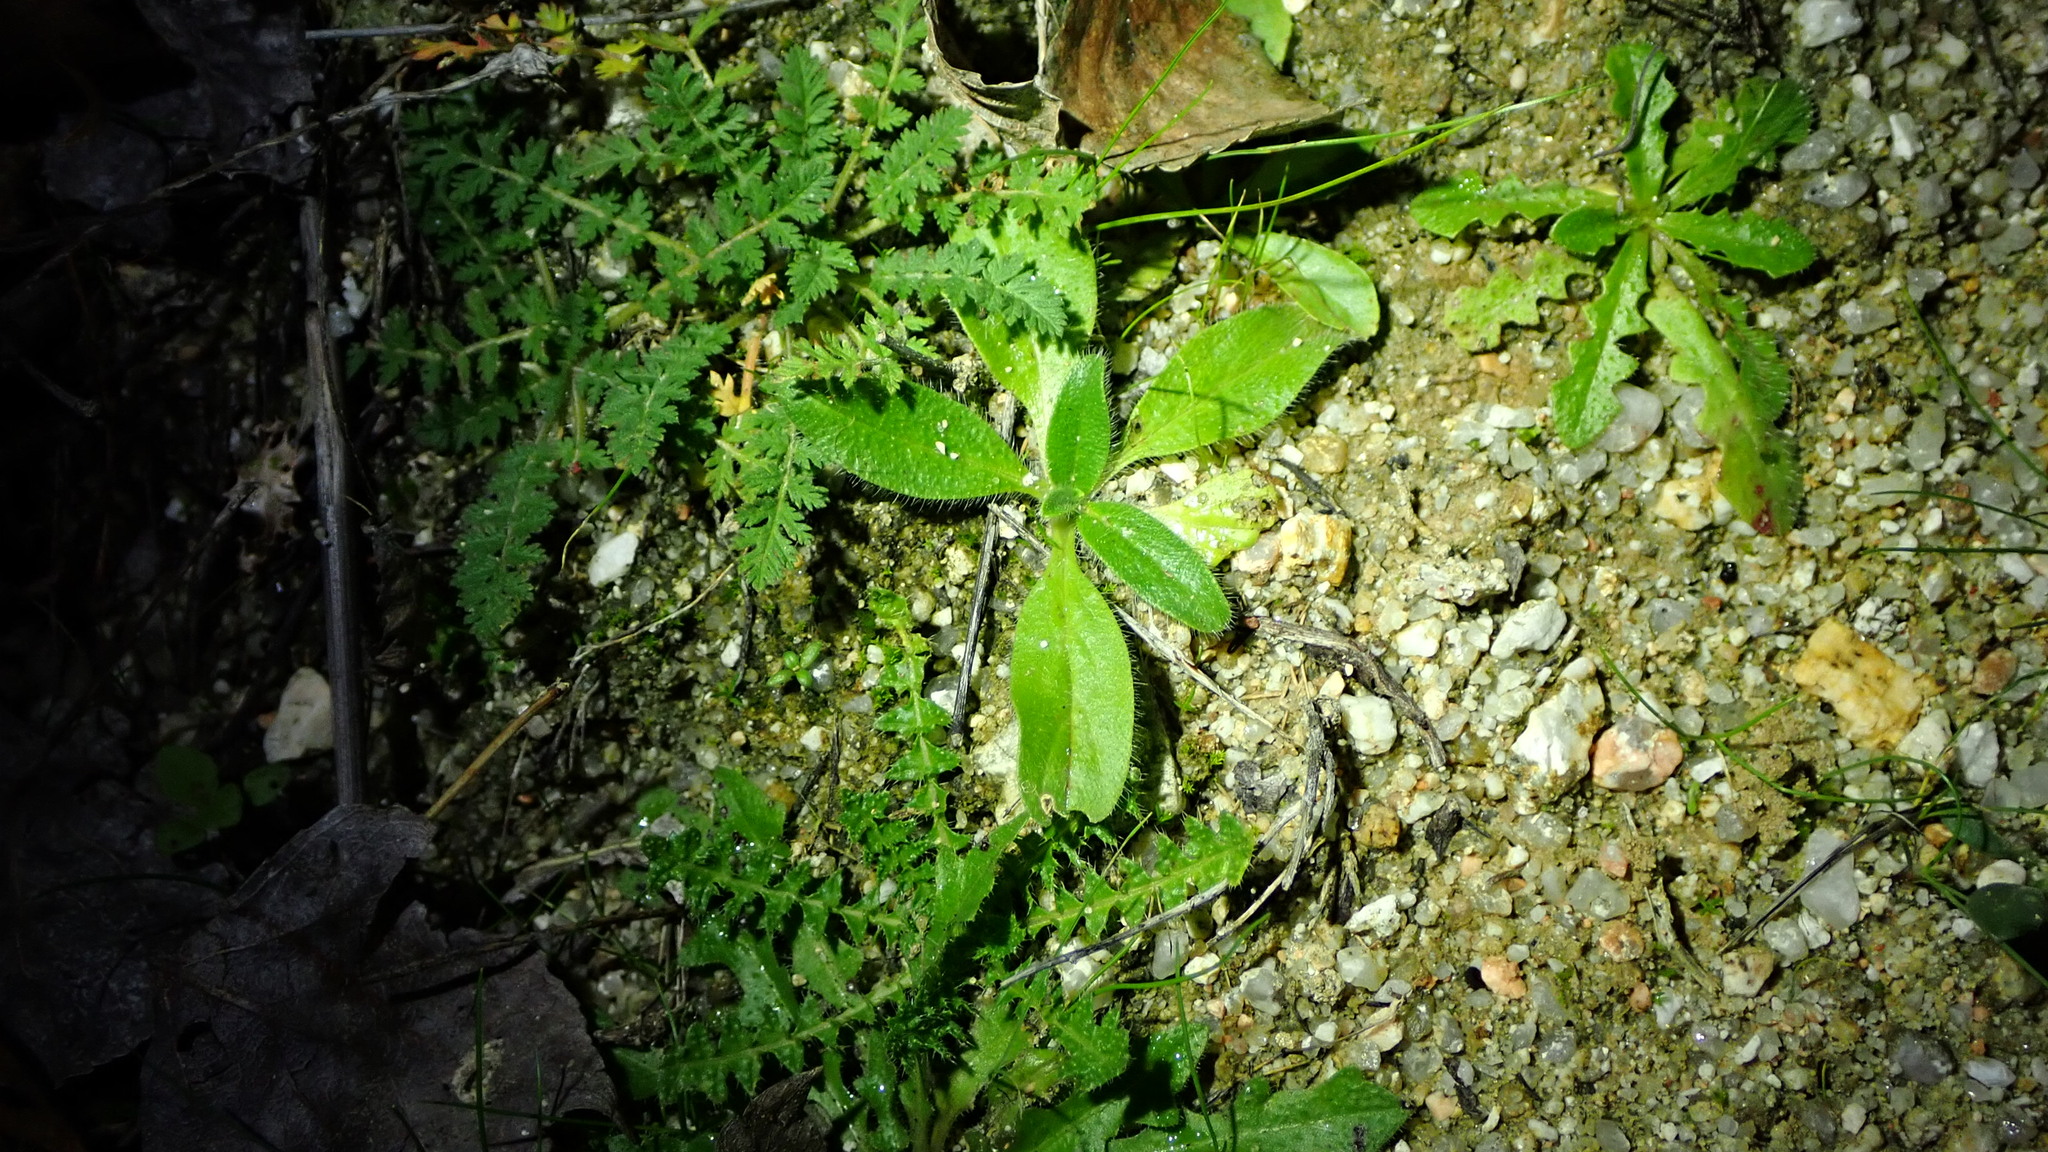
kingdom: Plantae
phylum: Tracheophyta
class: Magnoliopsida
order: Boraginales
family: Boraginaceae
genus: Echium
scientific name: Echium plantagineum
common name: Purple viper's-bugloss
